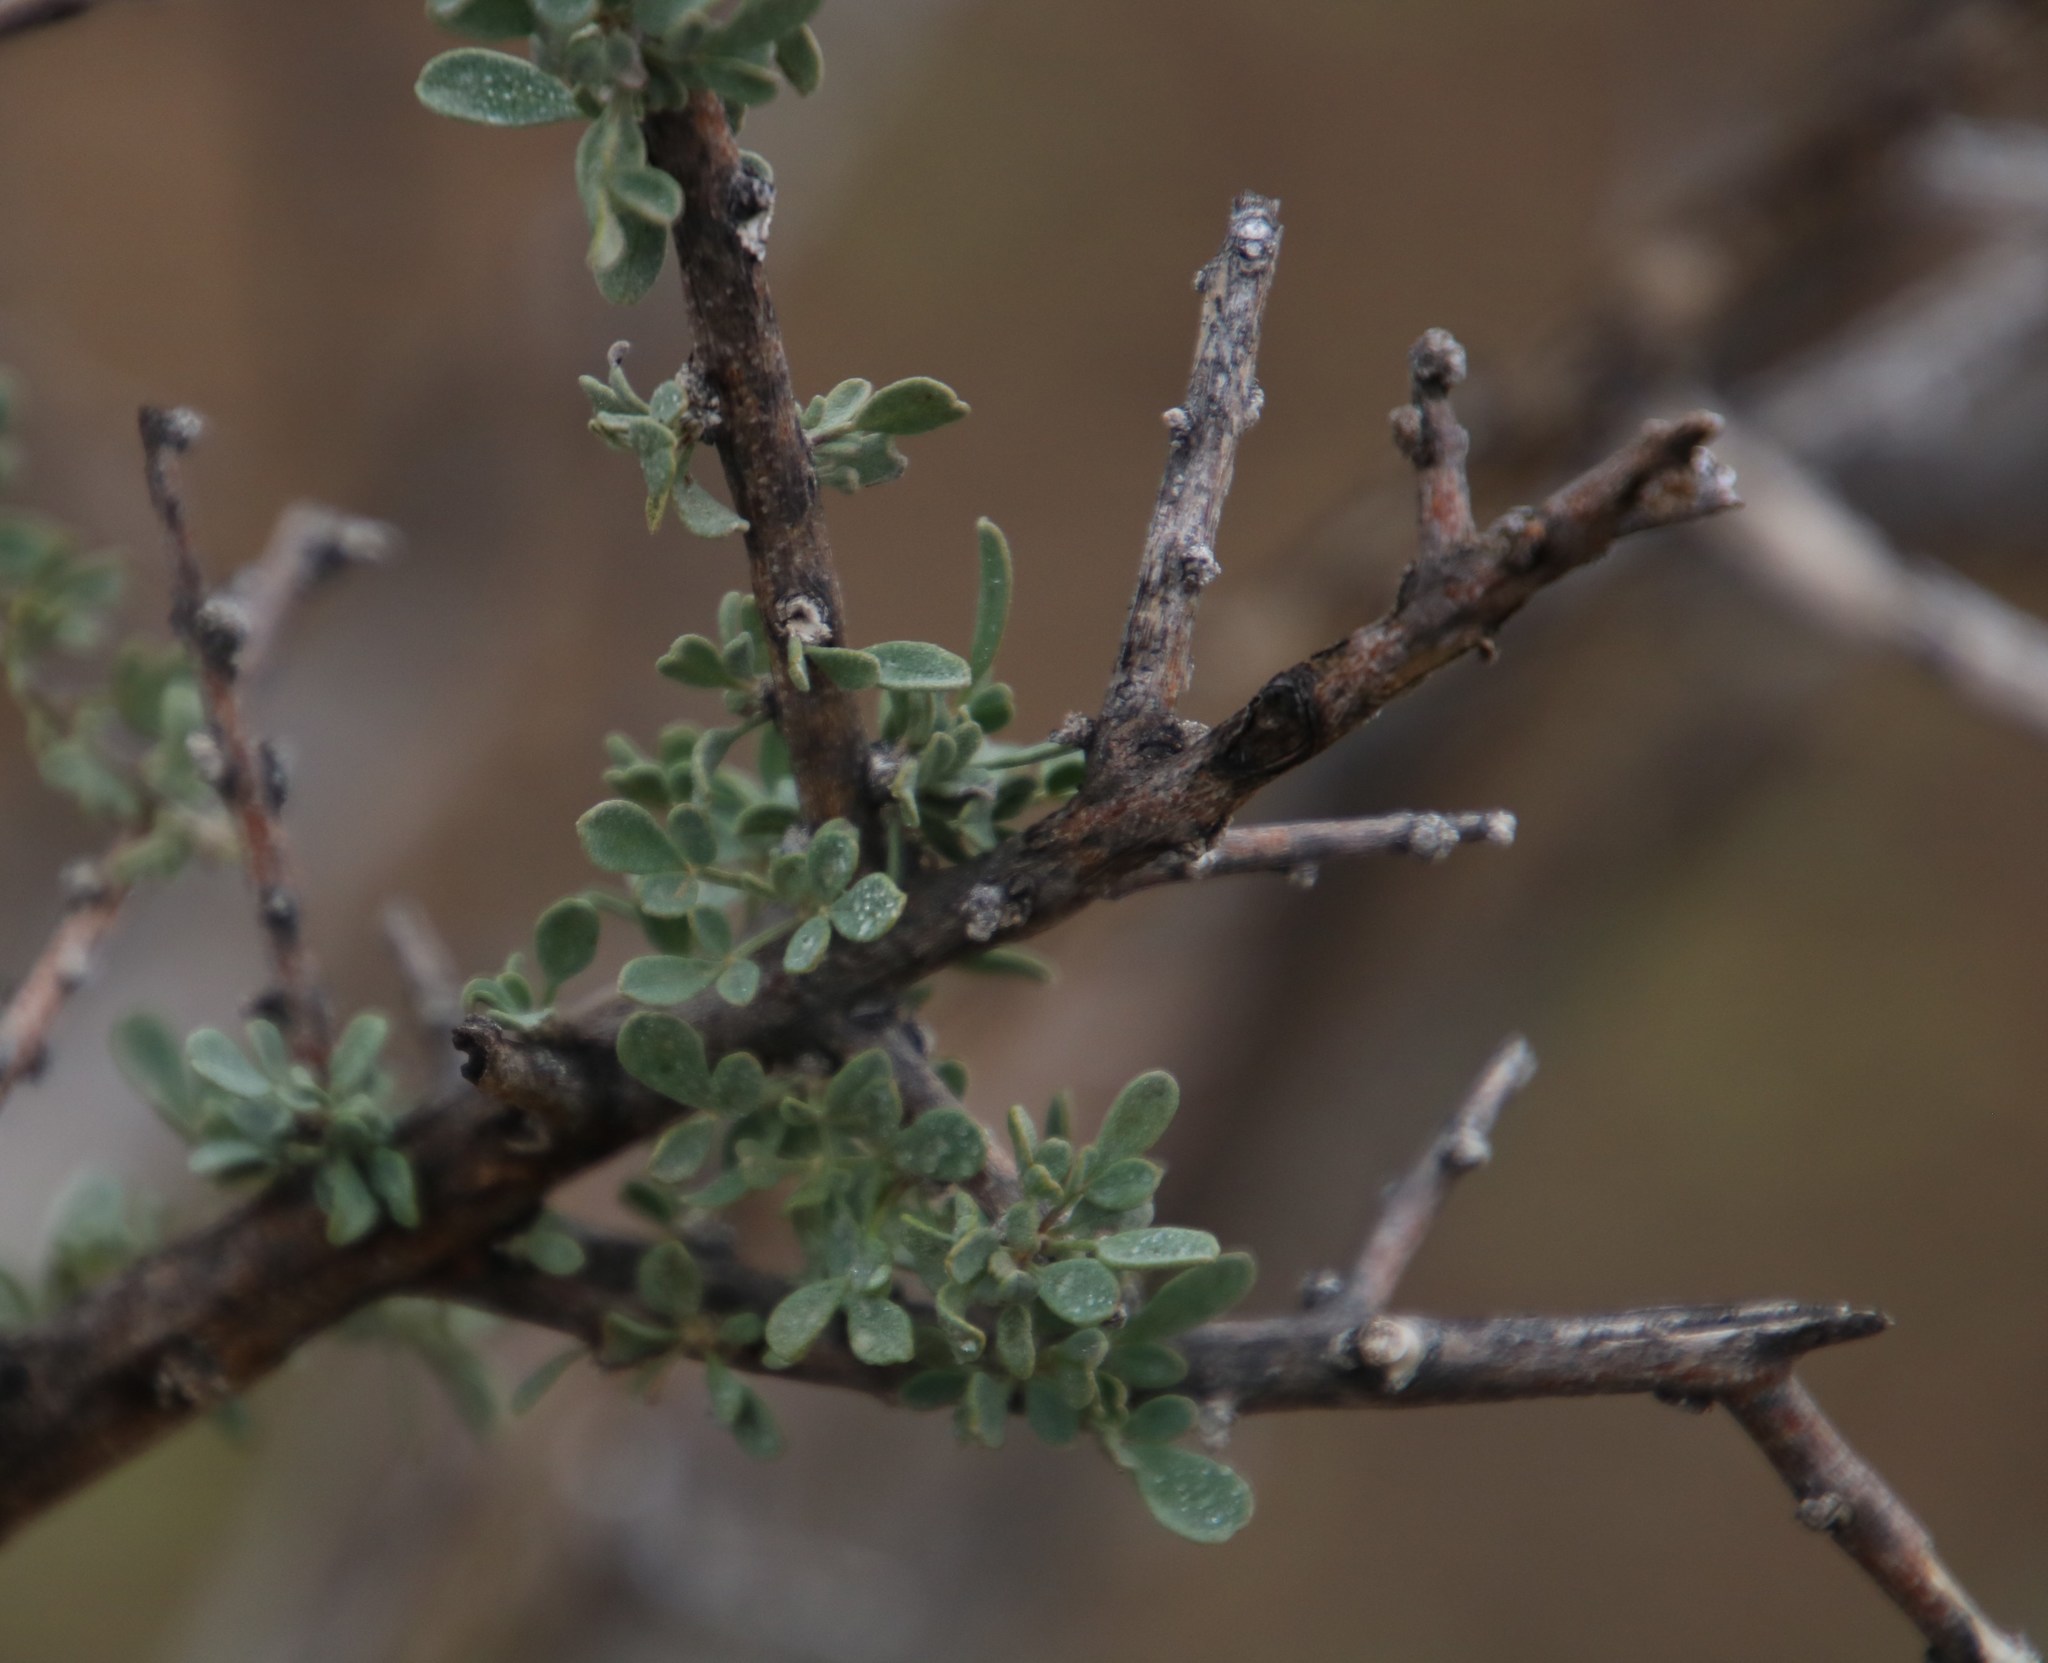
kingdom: Plantae
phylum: Tracheophyta
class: Magnoliopsida
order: Lamiales
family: Bignoniaceae
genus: Rhigozum
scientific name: Rhigozum obovatum
